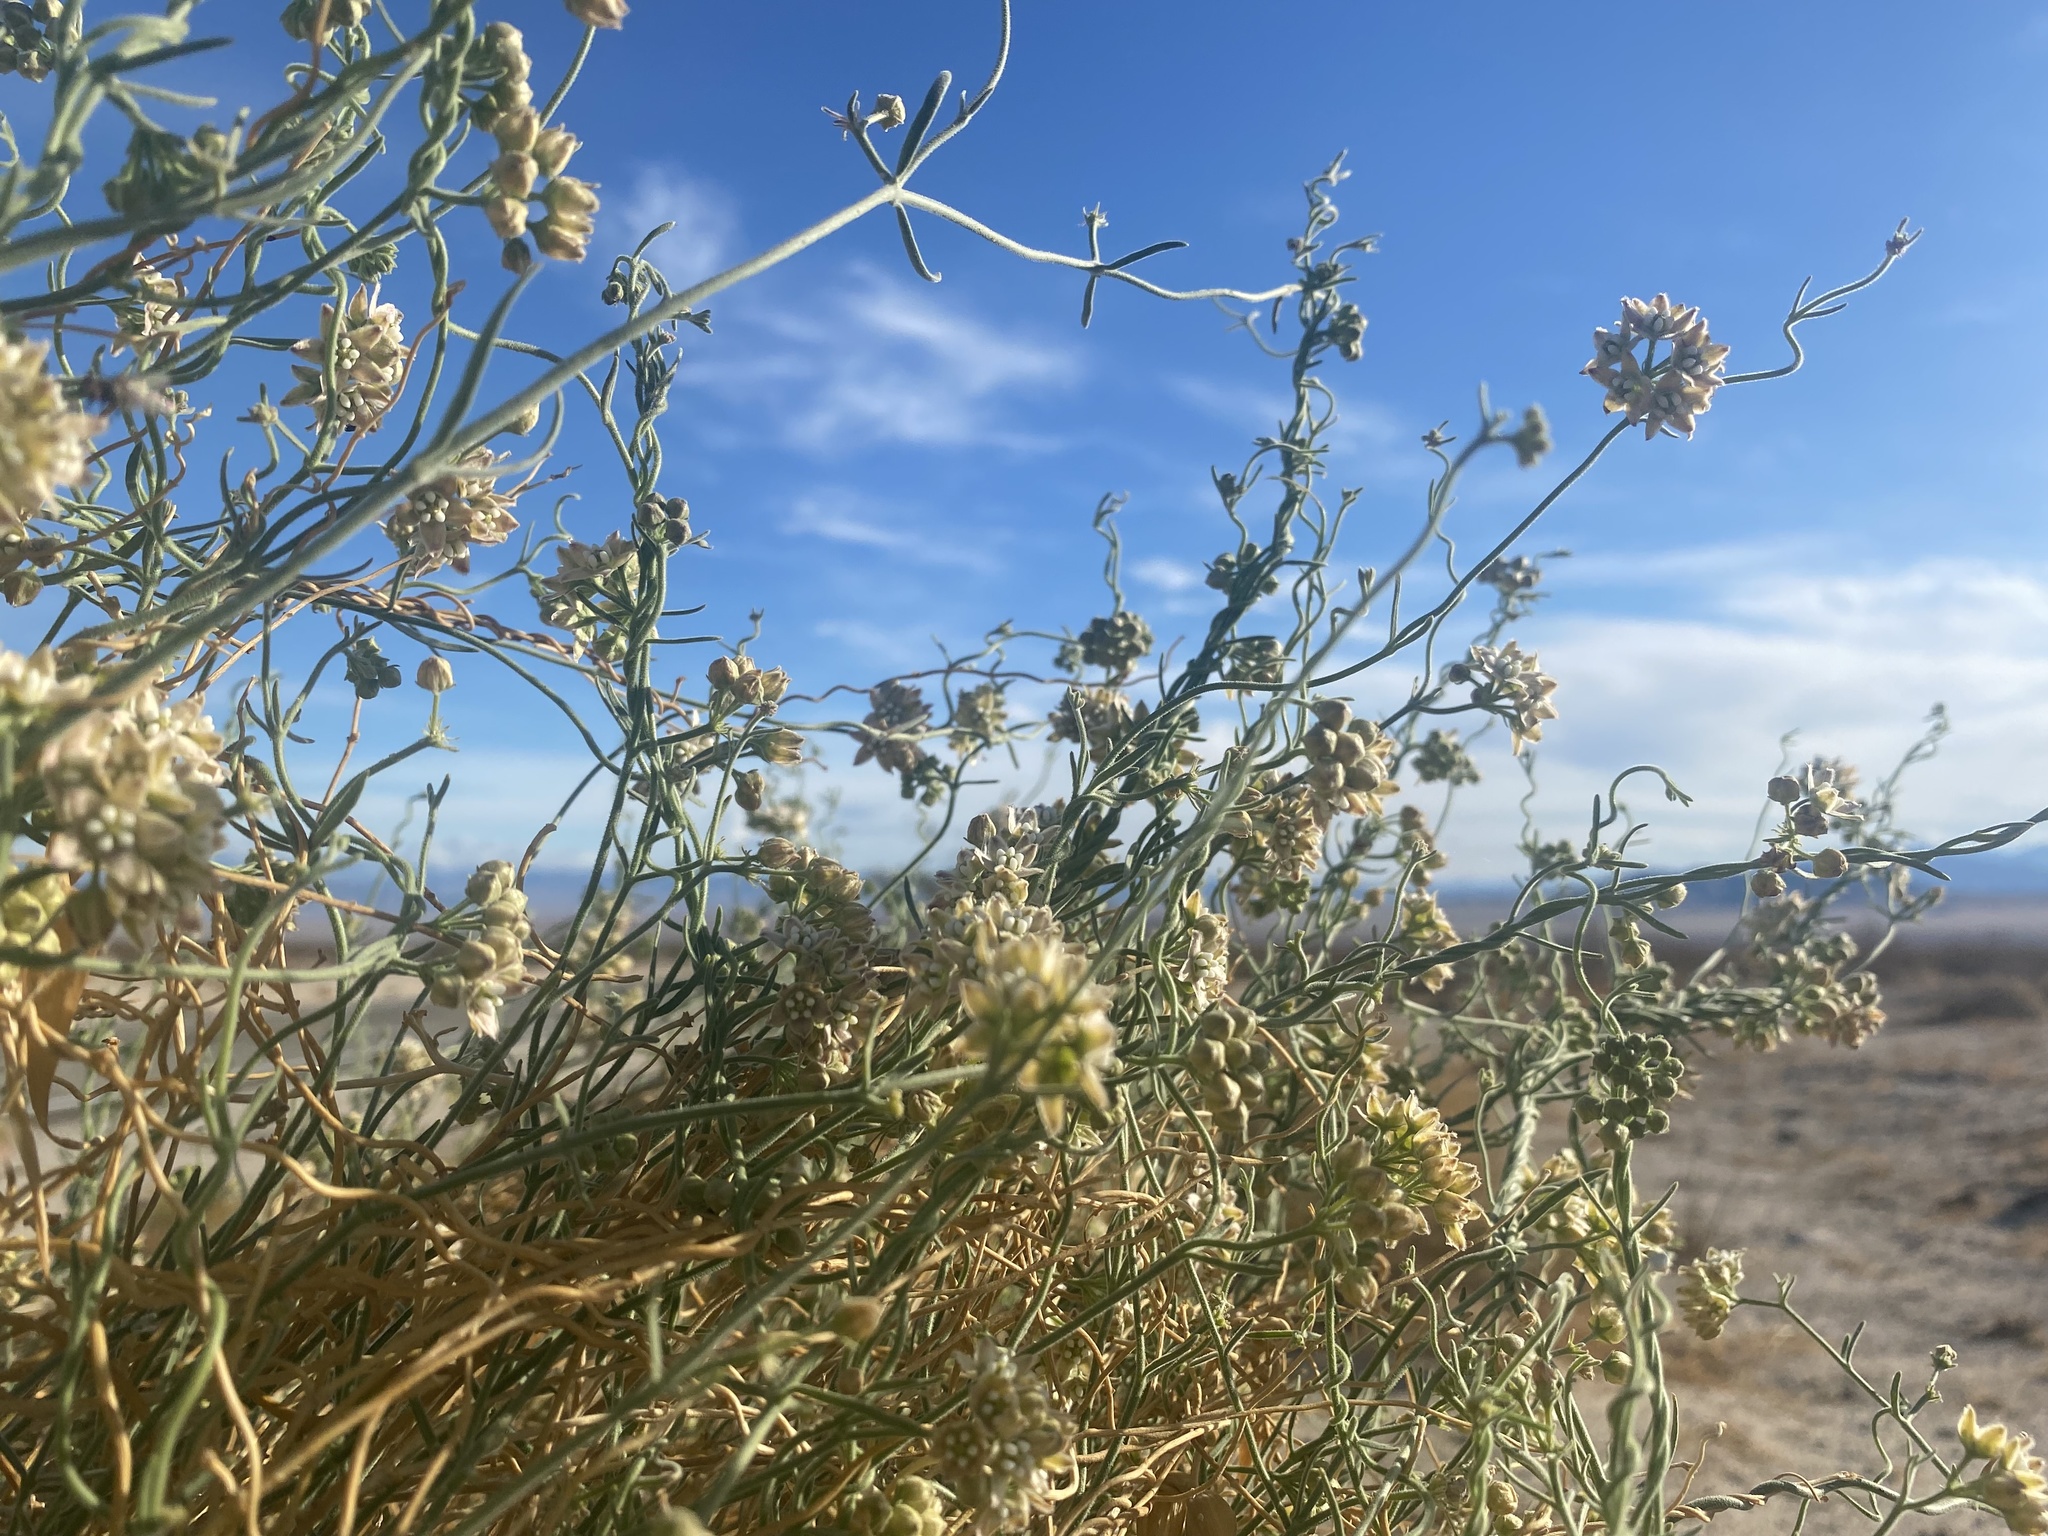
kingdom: Plantae
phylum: Tracheophyta
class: Magnoliopsida
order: Gentianales
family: Apocynaceae
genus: Funastrum
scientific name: Funastrum hirtellum
